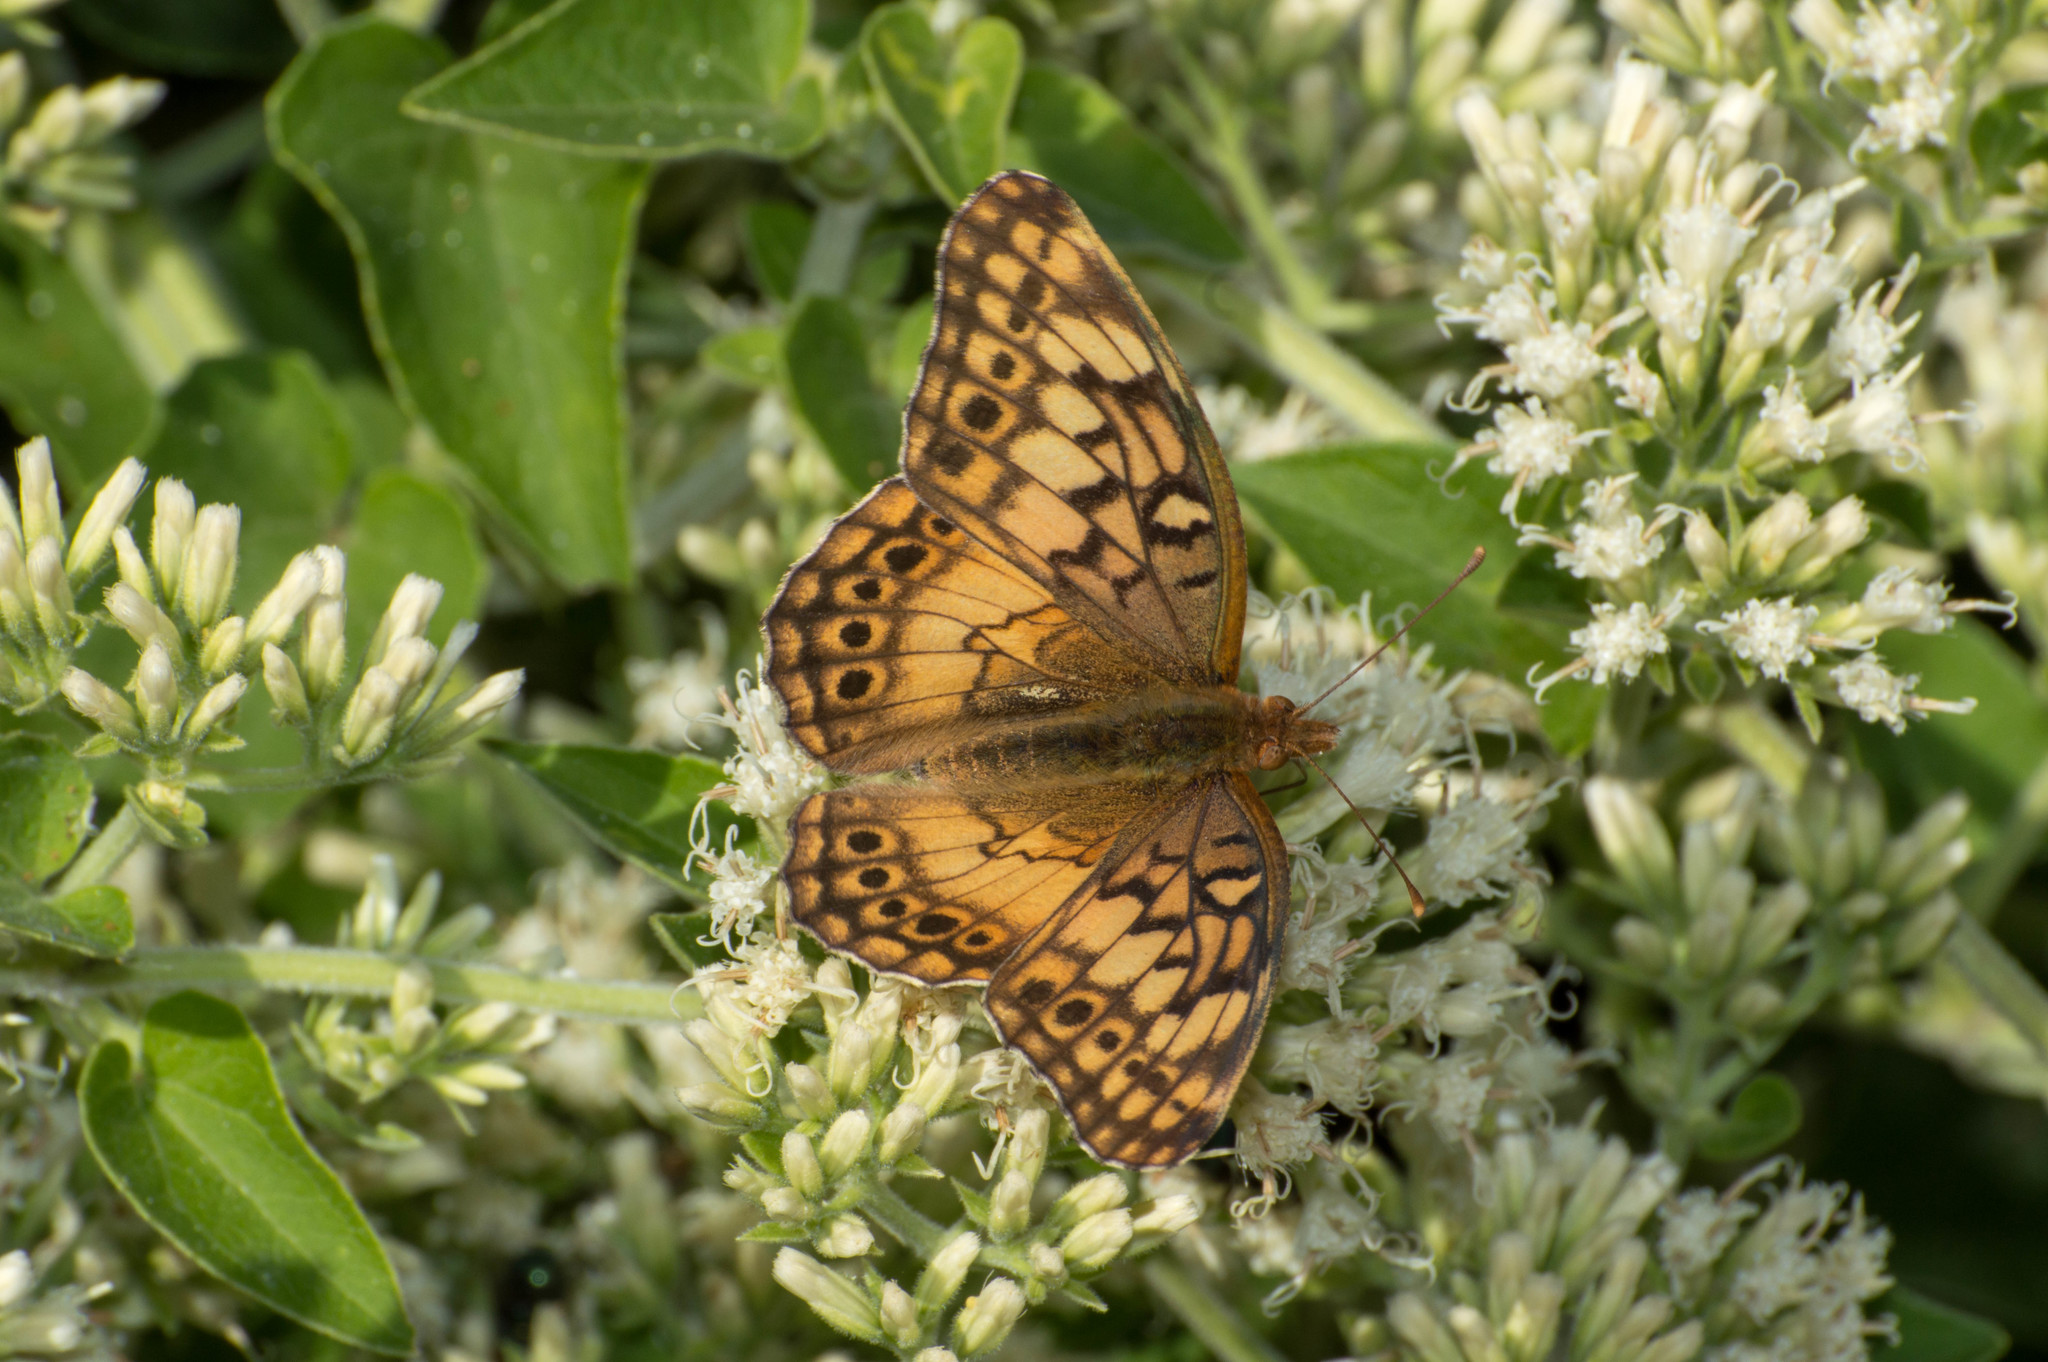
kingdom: Animalia
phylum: Arthropoda
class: Insecta
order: Lepidoptera
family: Nymphalidae
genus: Euptoieta
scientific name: Euptoieta hortensia
